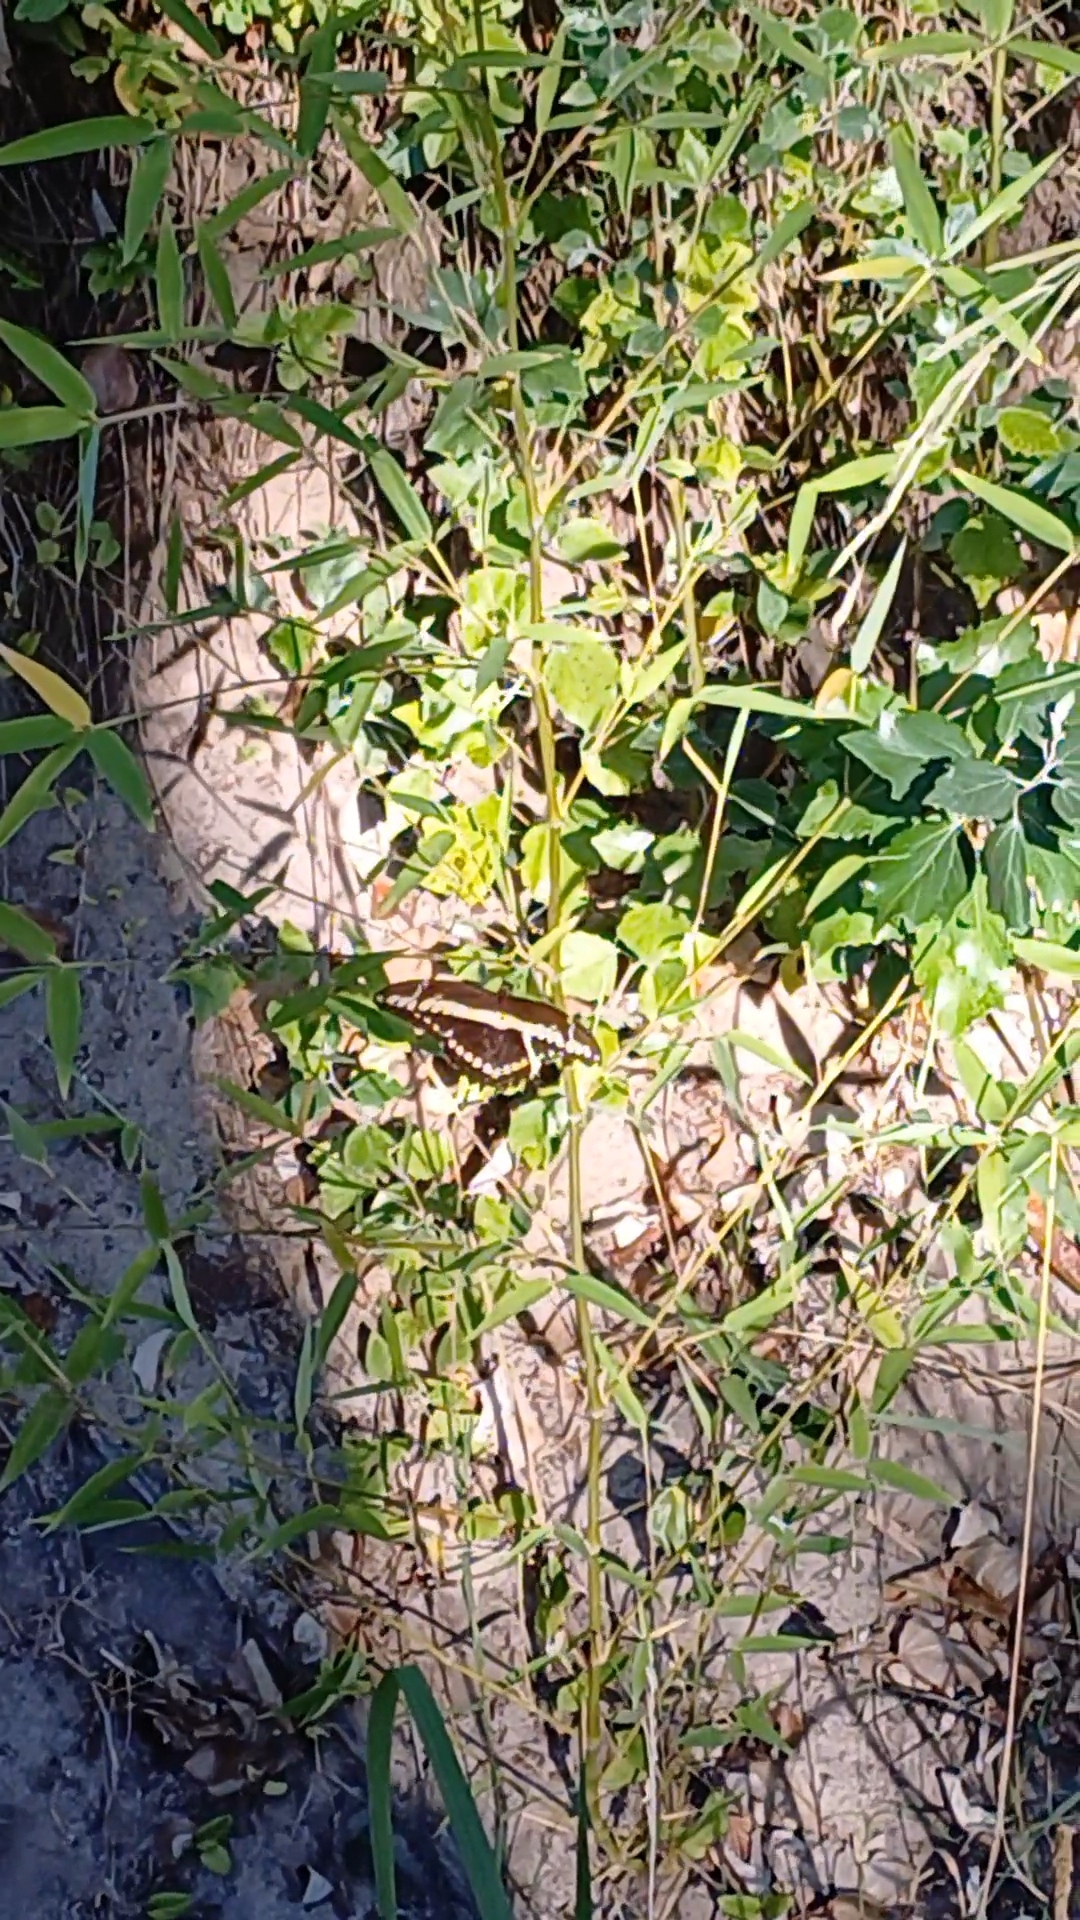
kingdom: Animalia
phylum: Arthropoda
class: Insecta
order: Lepidoptera
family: Papilionidae
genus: Papilio
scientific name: Papilio thoas
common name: King swallowtail
